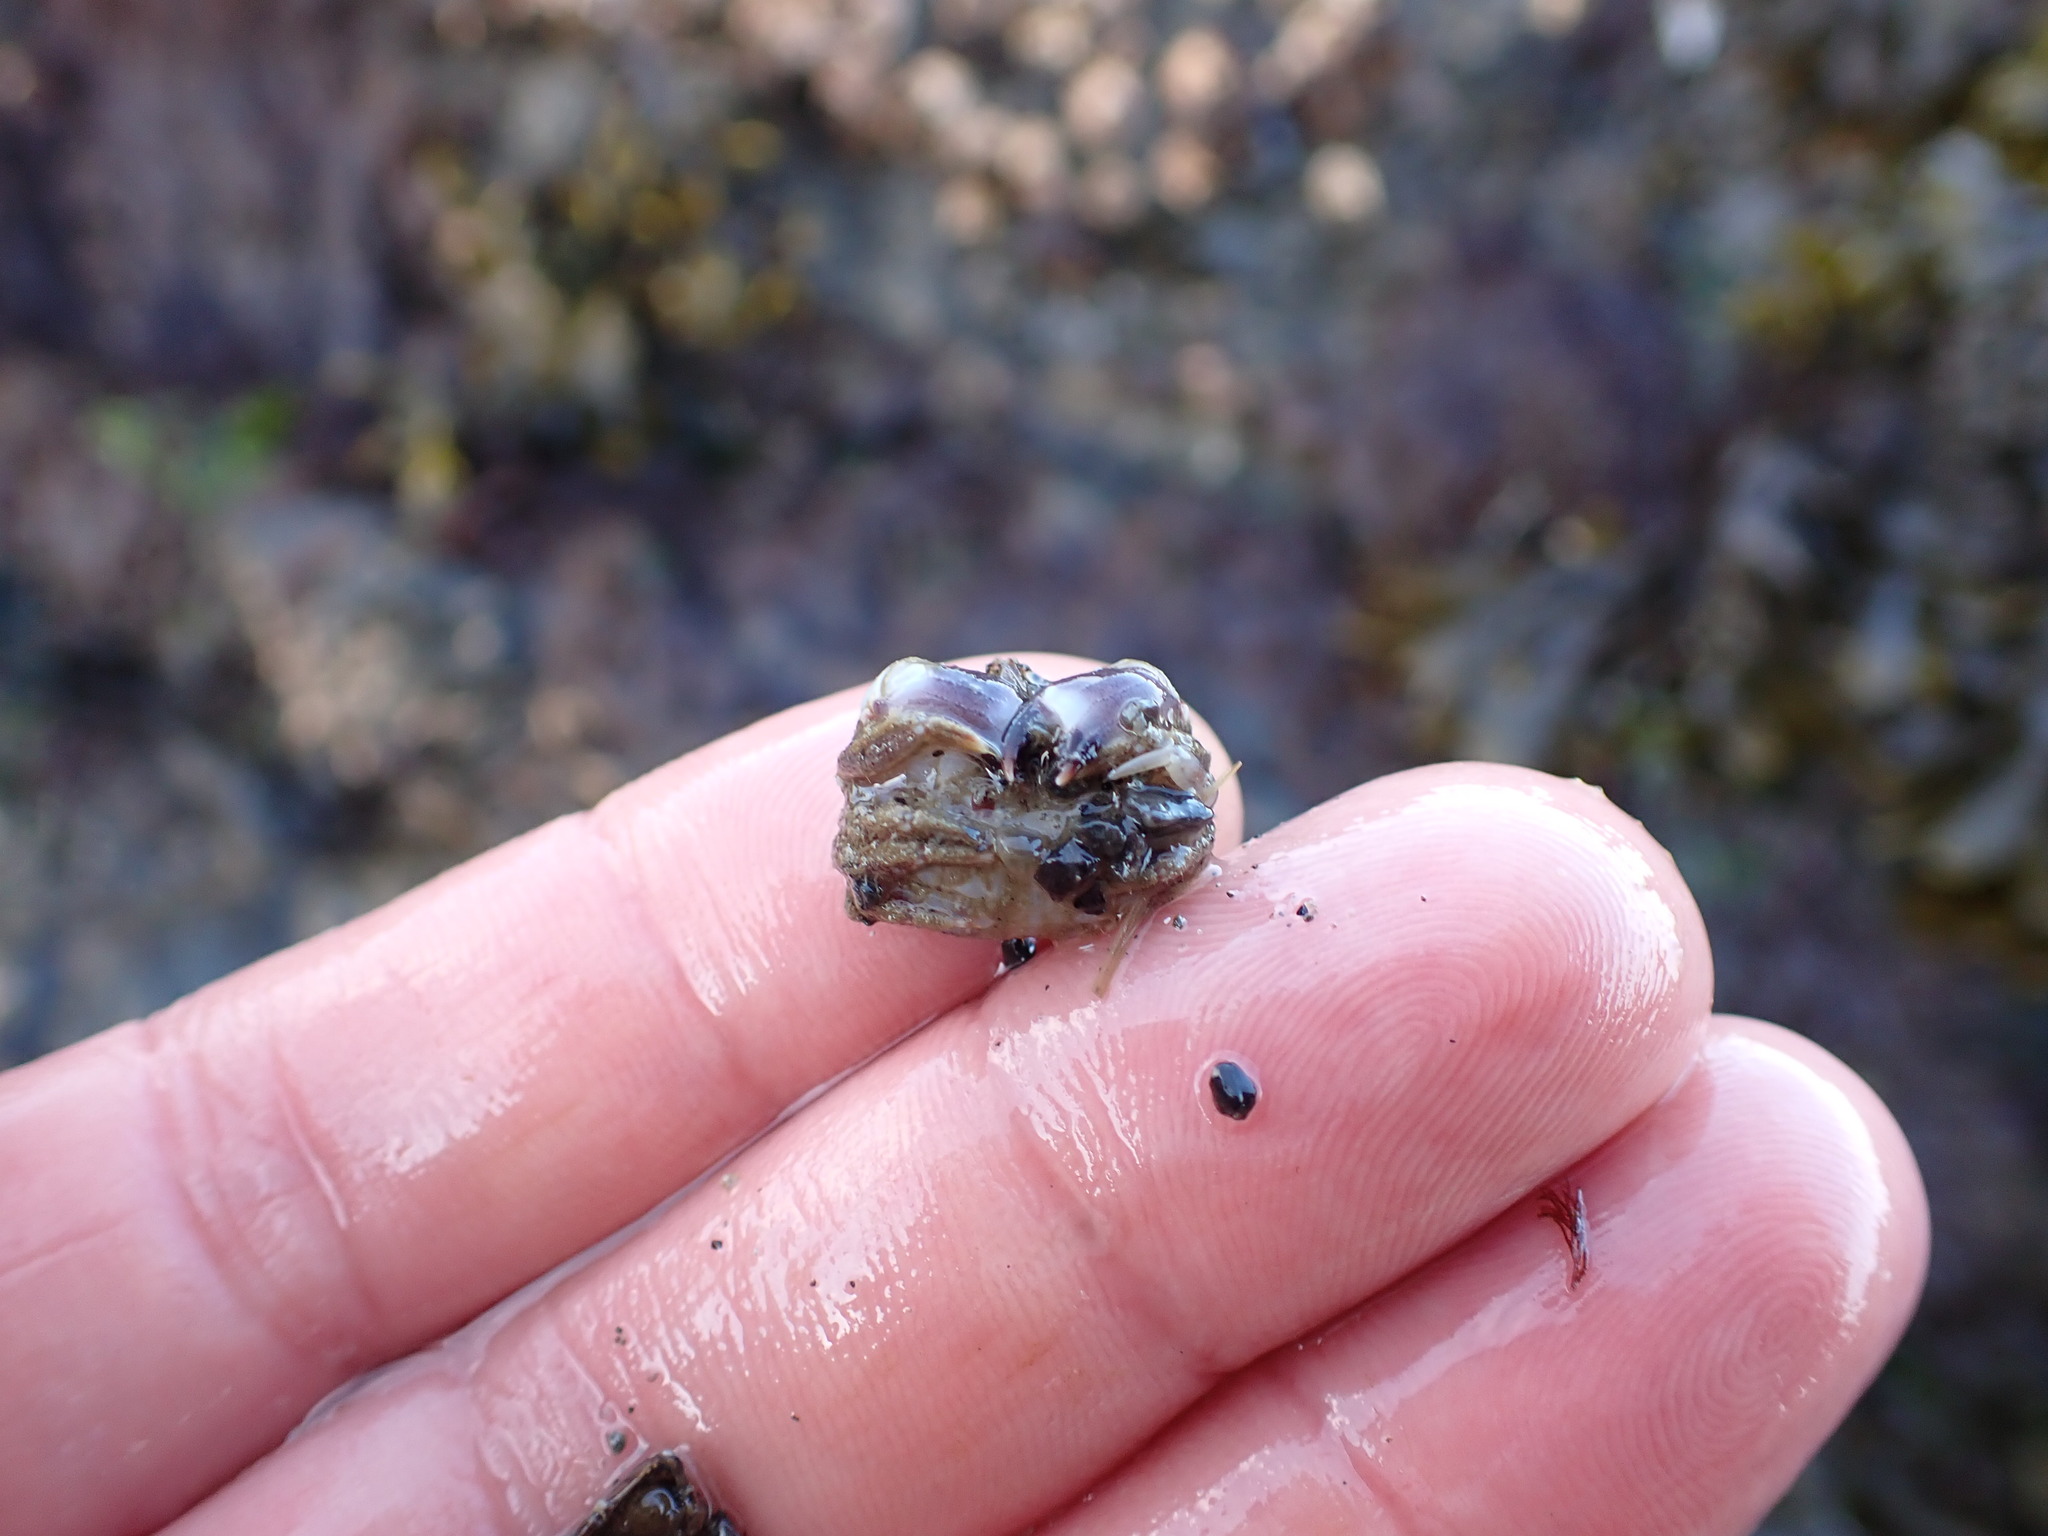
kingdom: Animalia
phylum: Arthropoda
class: Malacostraca
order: Decapoda
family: Cancridae
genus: Glebocarcinus
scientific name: Glebocarcinus oregonensis
